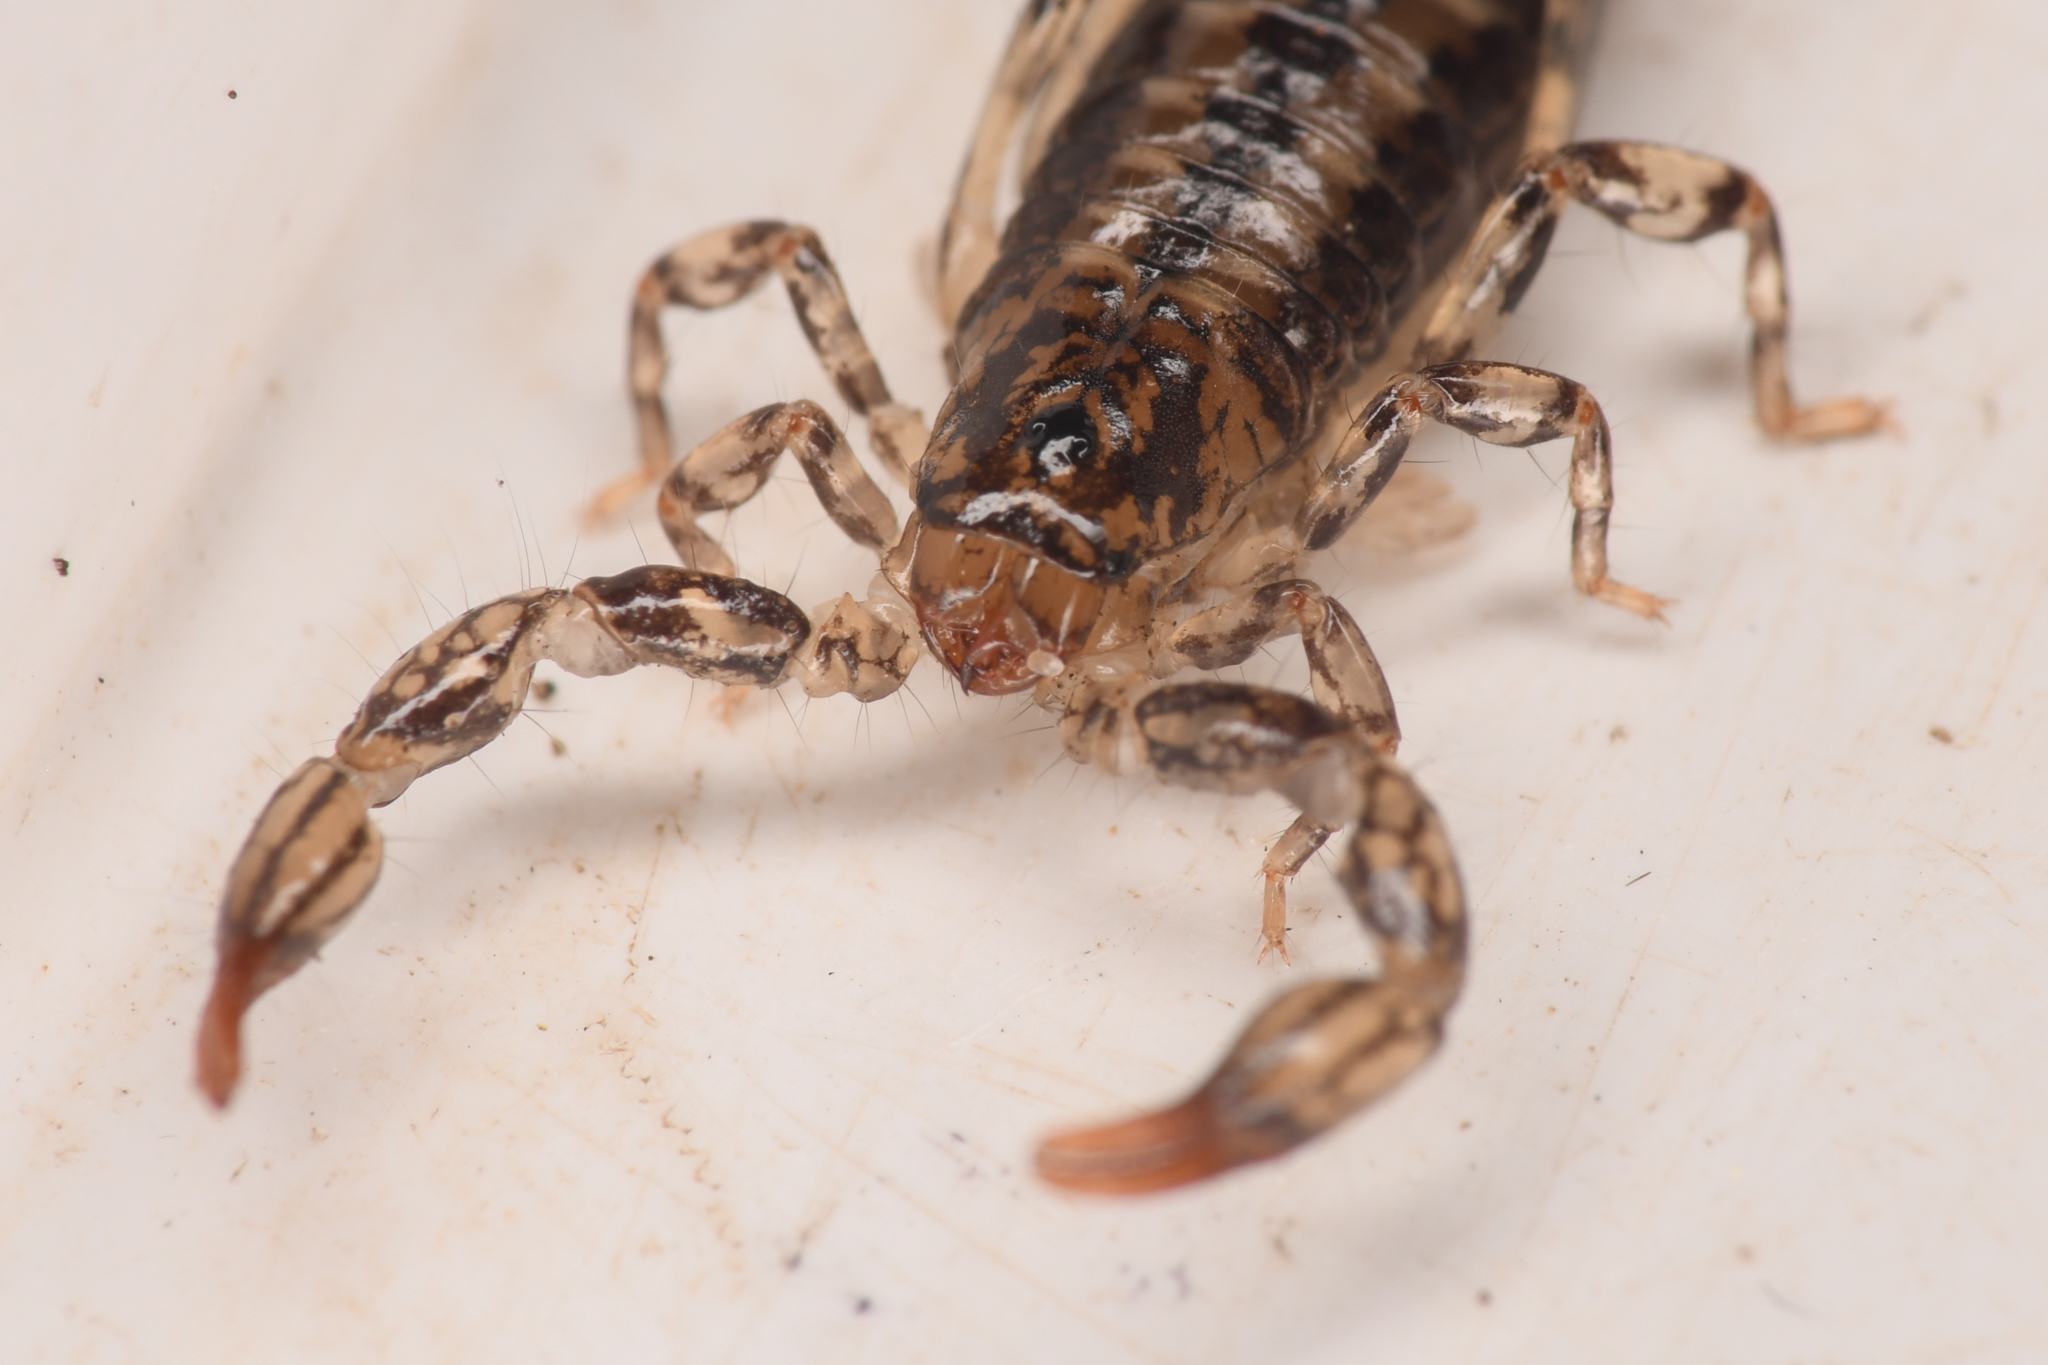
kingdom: Animalia
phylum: Arthropoda
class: Arachnida
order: Scorpiones
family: Superstitioniidae
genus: Superstitionia
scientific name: Superstitionia donensis
